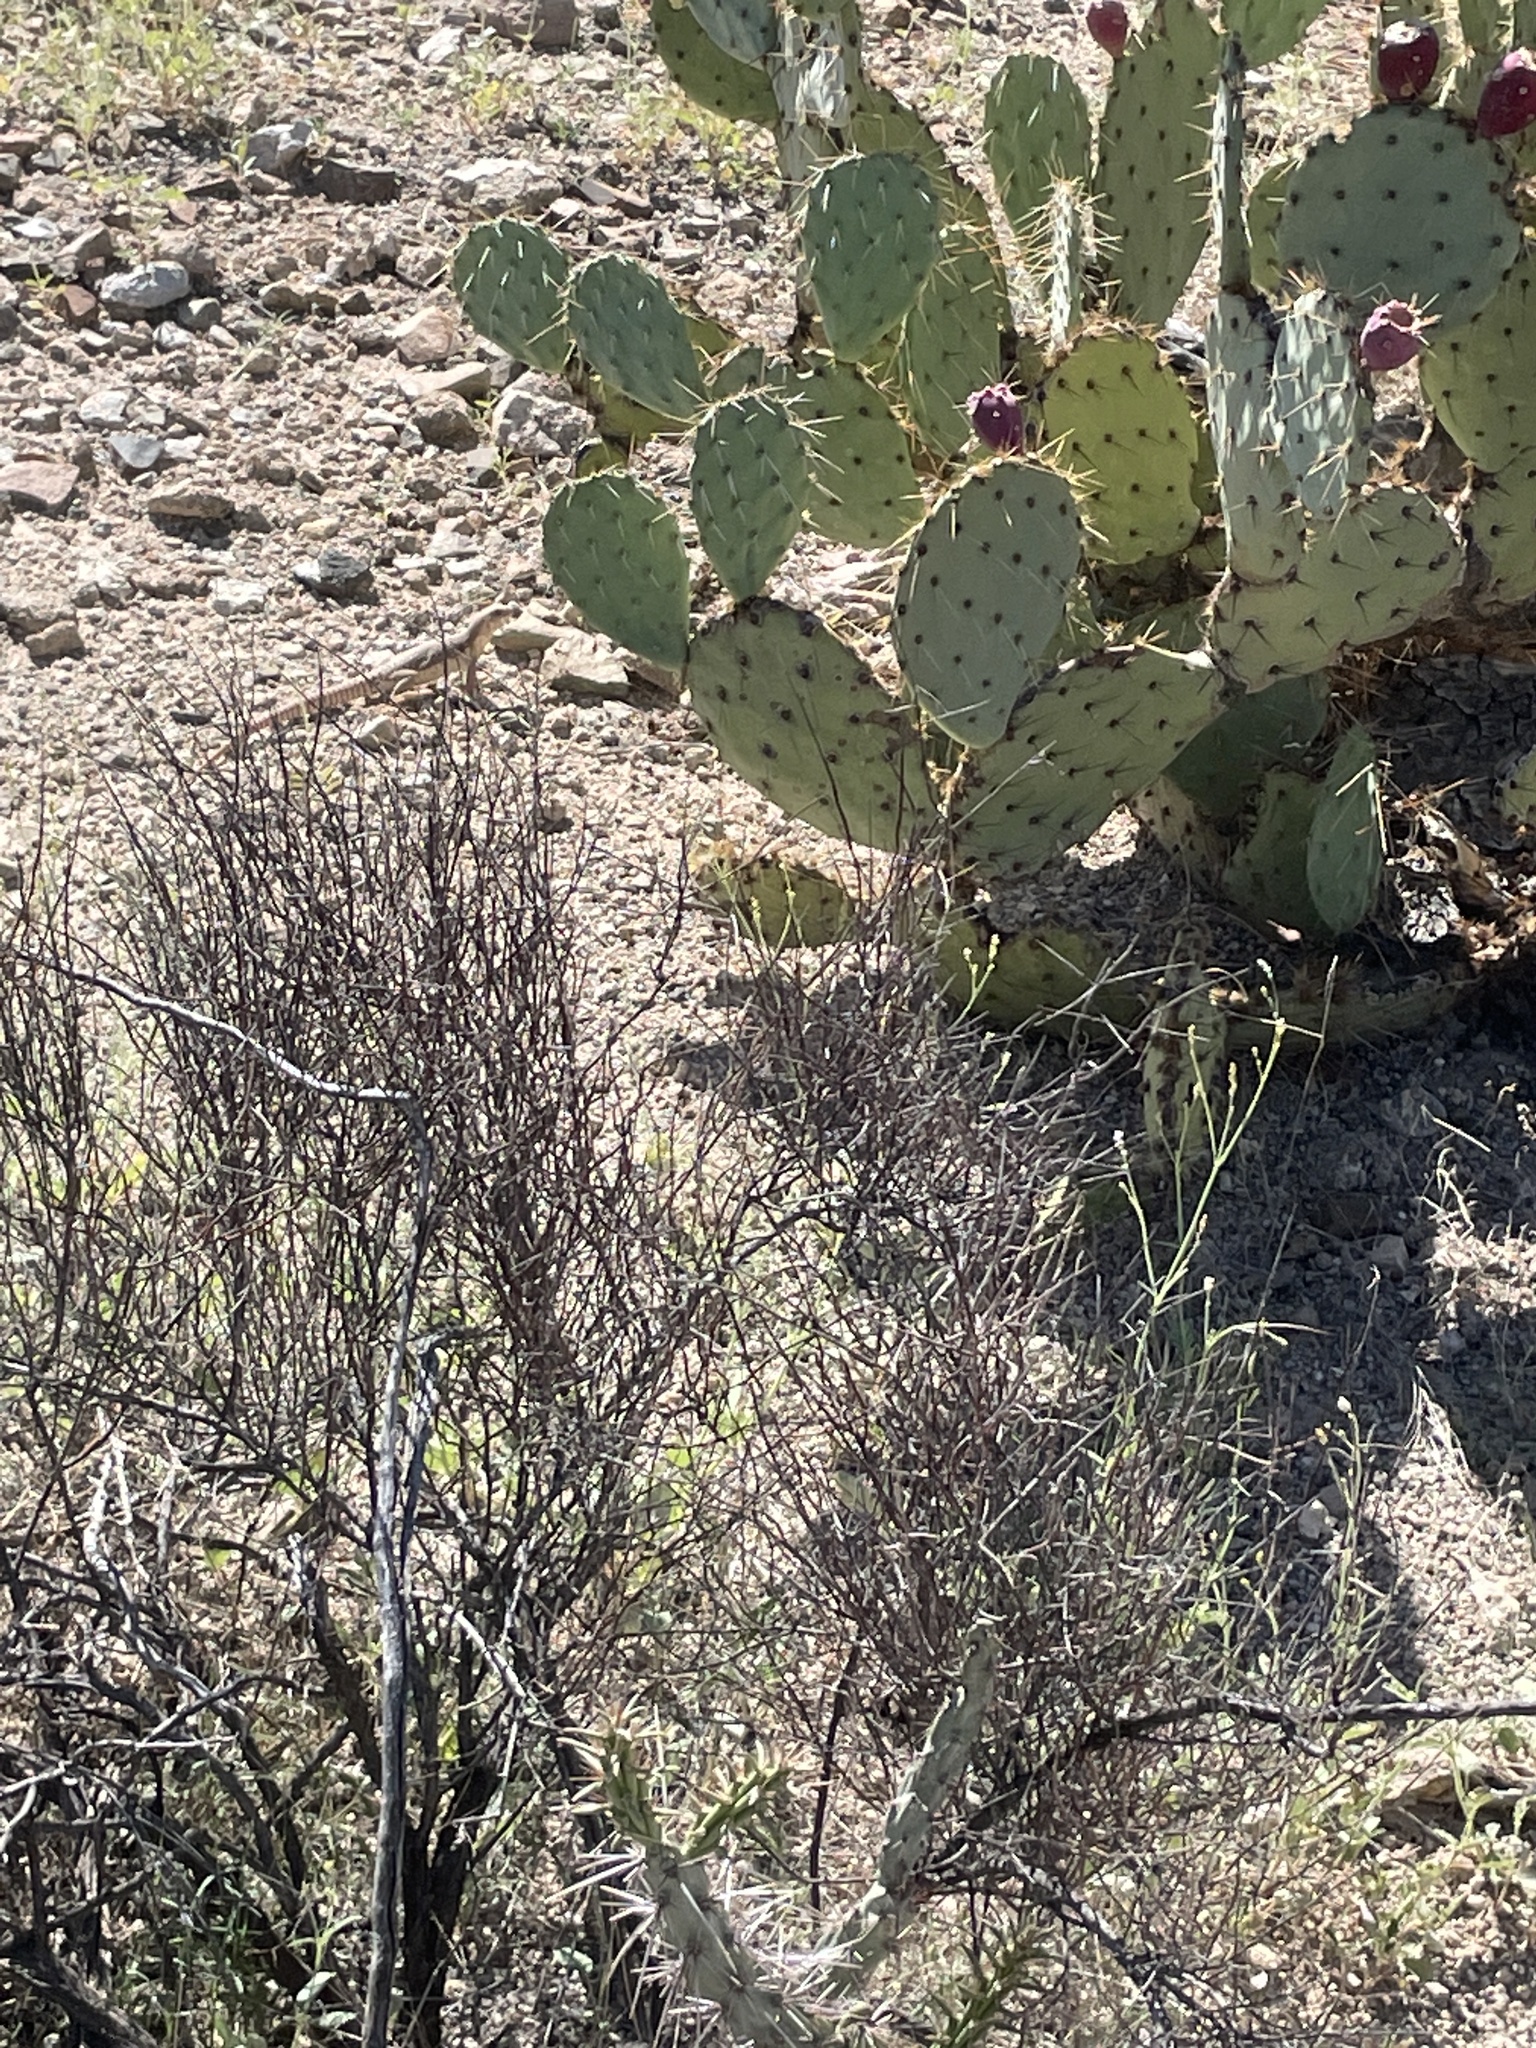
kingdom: Animalia
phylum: Chordata
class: Squamata
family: Iguanidae
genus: Dipsosaurus
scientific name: Dipsosaurus dorsalis
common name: Desert iguana
